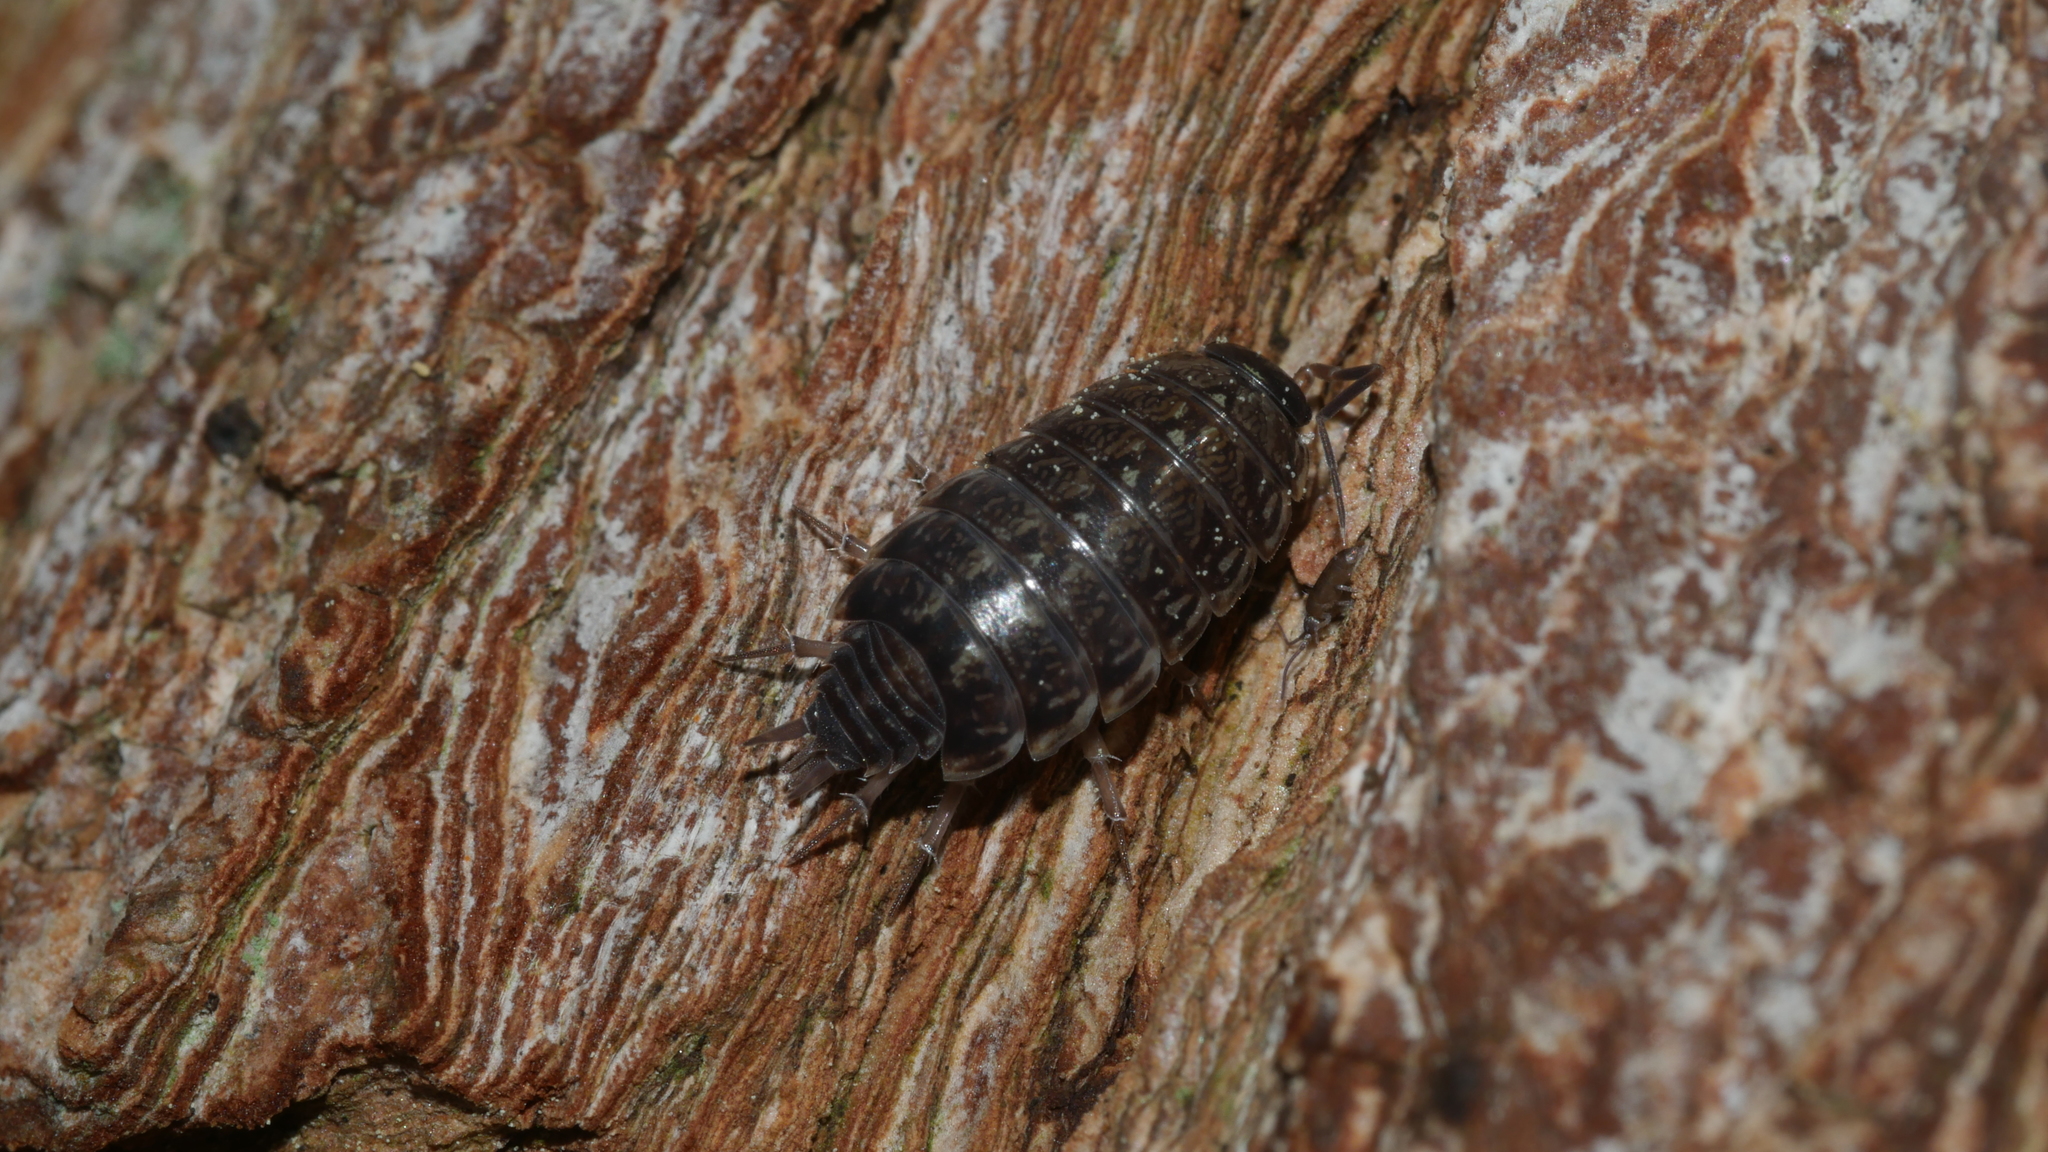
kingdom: Animalia
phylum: Arthropoda
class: Malacostraca
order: Isopoda
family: Philosciidae
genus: Philoscia
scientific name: Philoscia muscorum
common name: Common striped woodlouse
